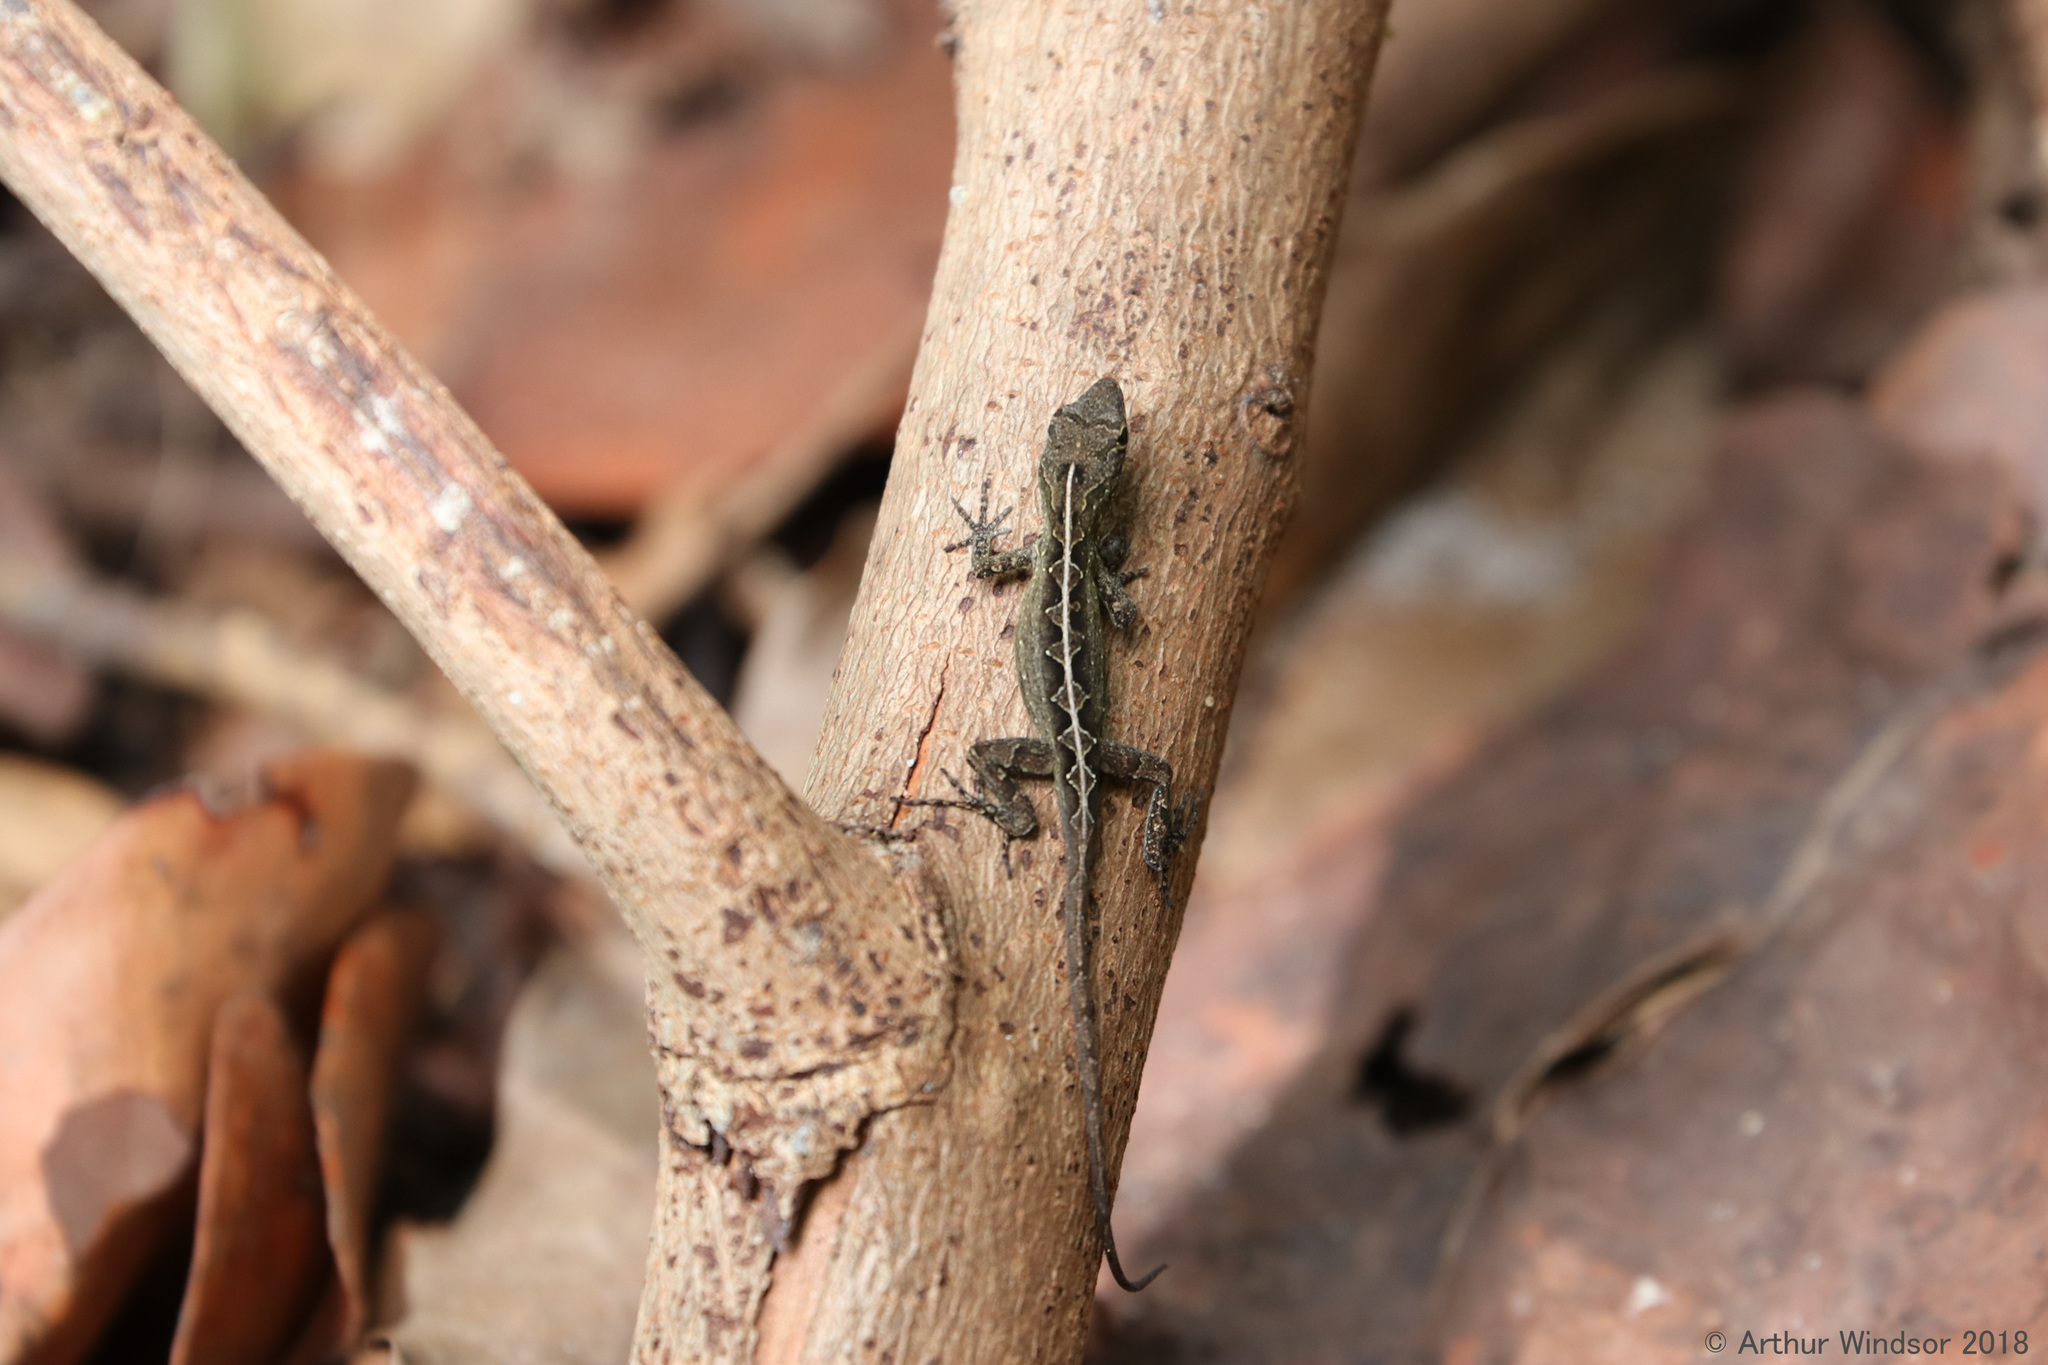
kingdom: Animalia
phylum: Chordata
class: Squamata
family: Dactyloidae
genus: Anolis
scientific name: Anolis sagrei
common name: Brown anole
